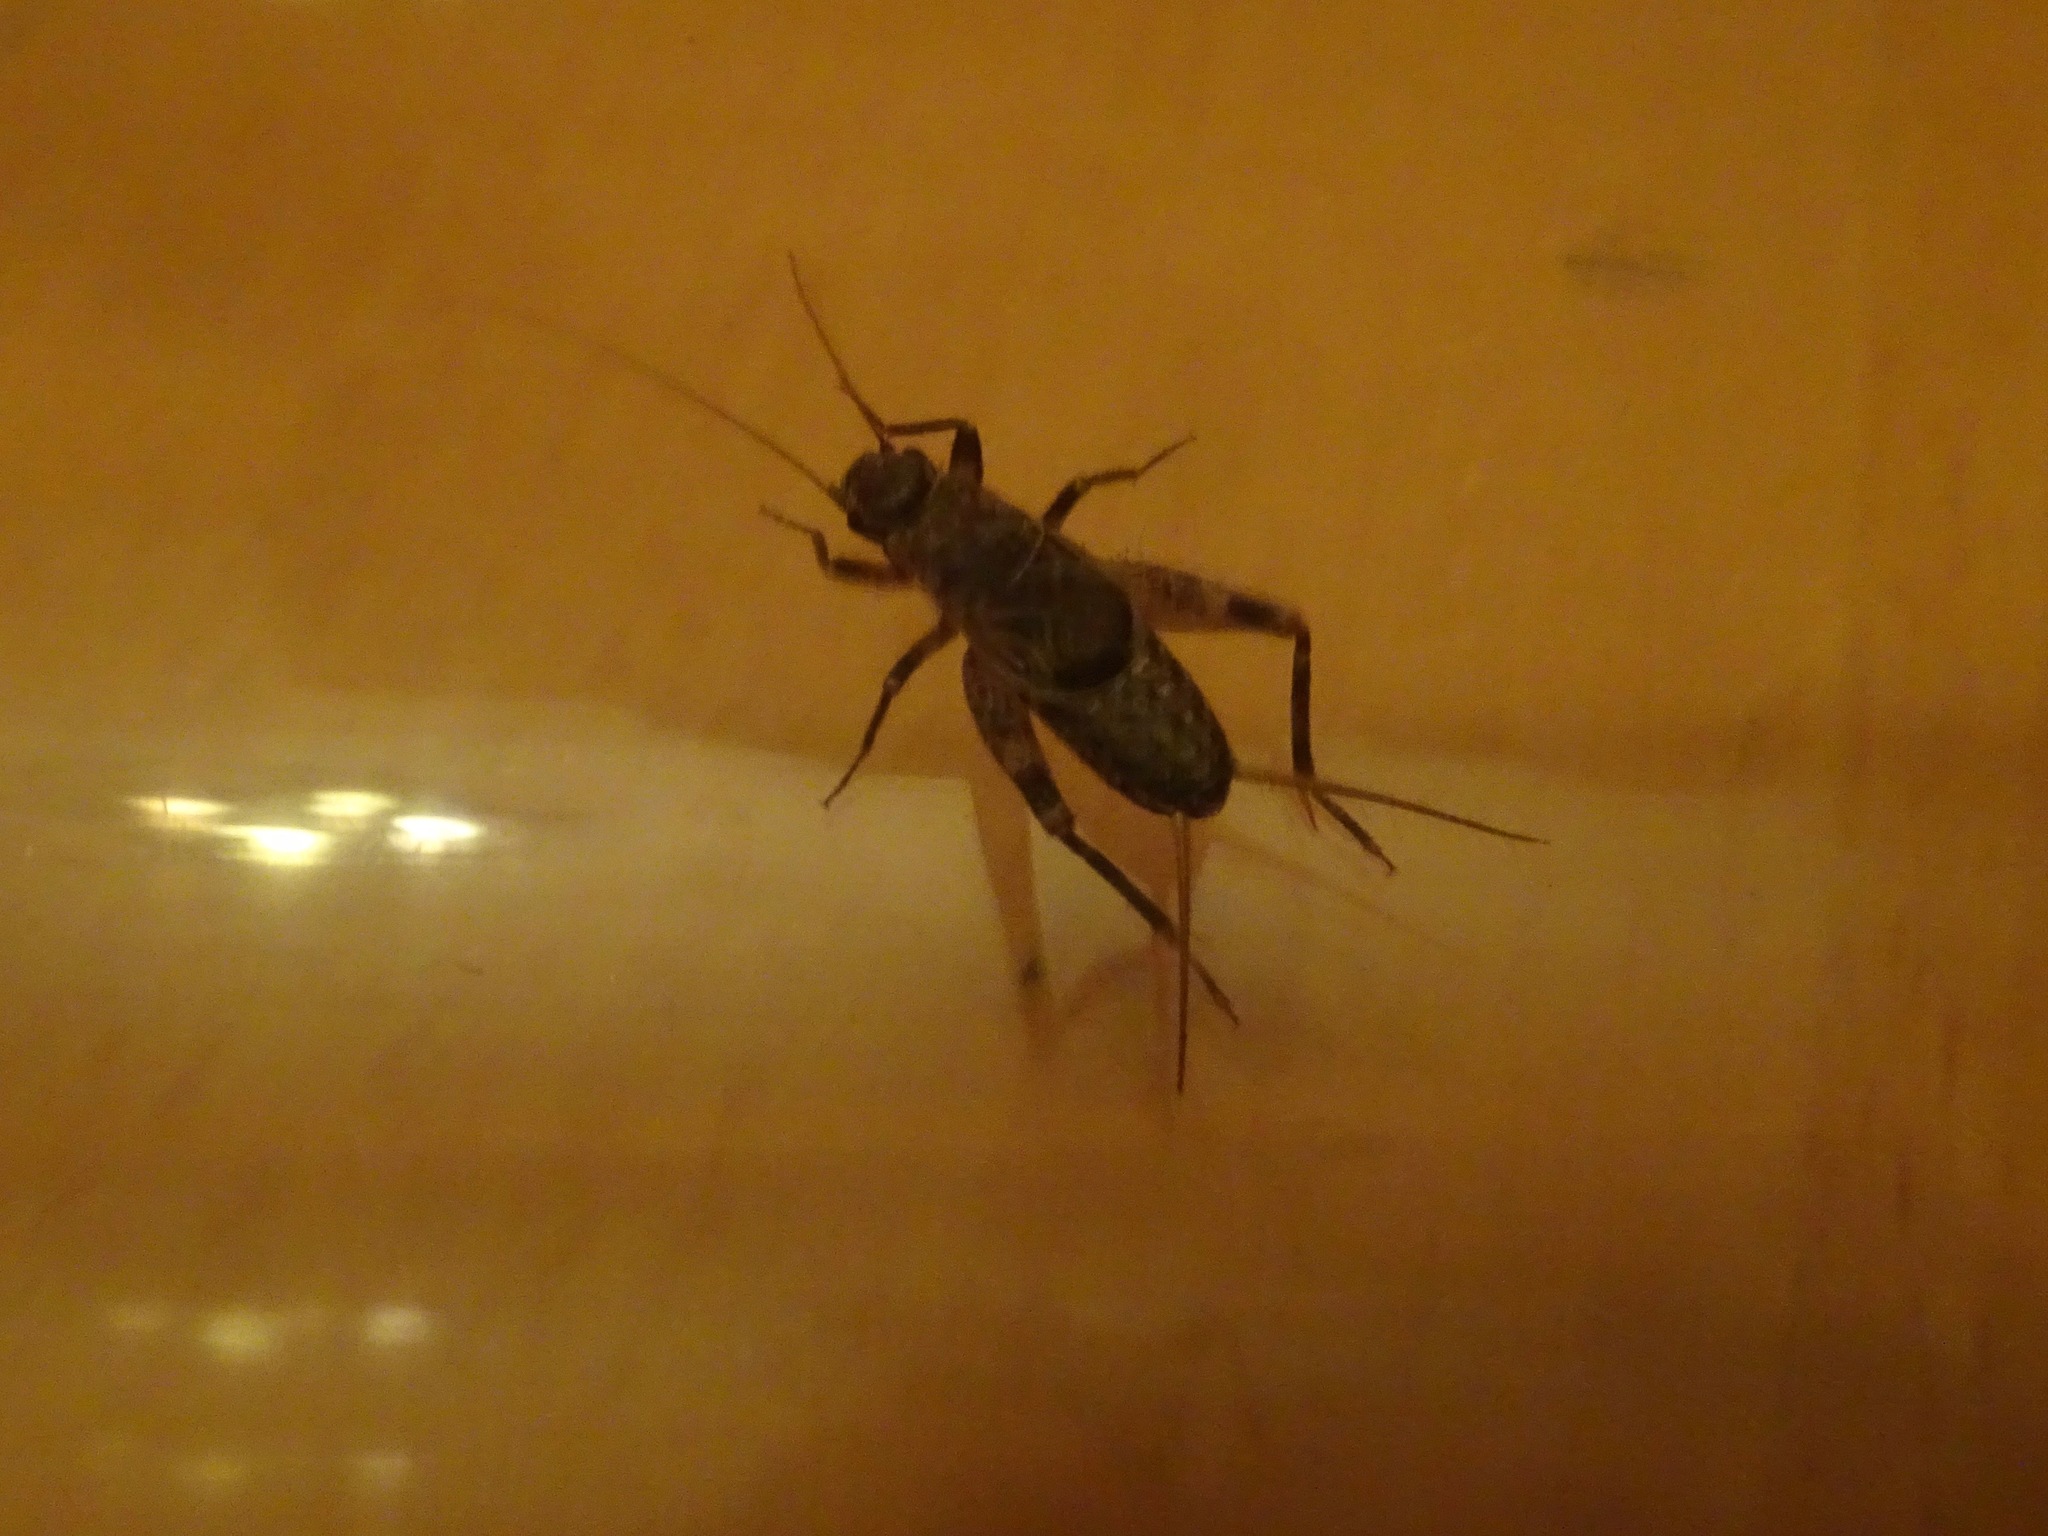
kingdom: Animalia
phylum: Arthropoda
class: Insecta
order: Orthoptera
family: Mogoplistidae
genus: Hoplosphyrum
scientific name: Hoplosphyrum boreale
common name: Long-winged scaly cricket
